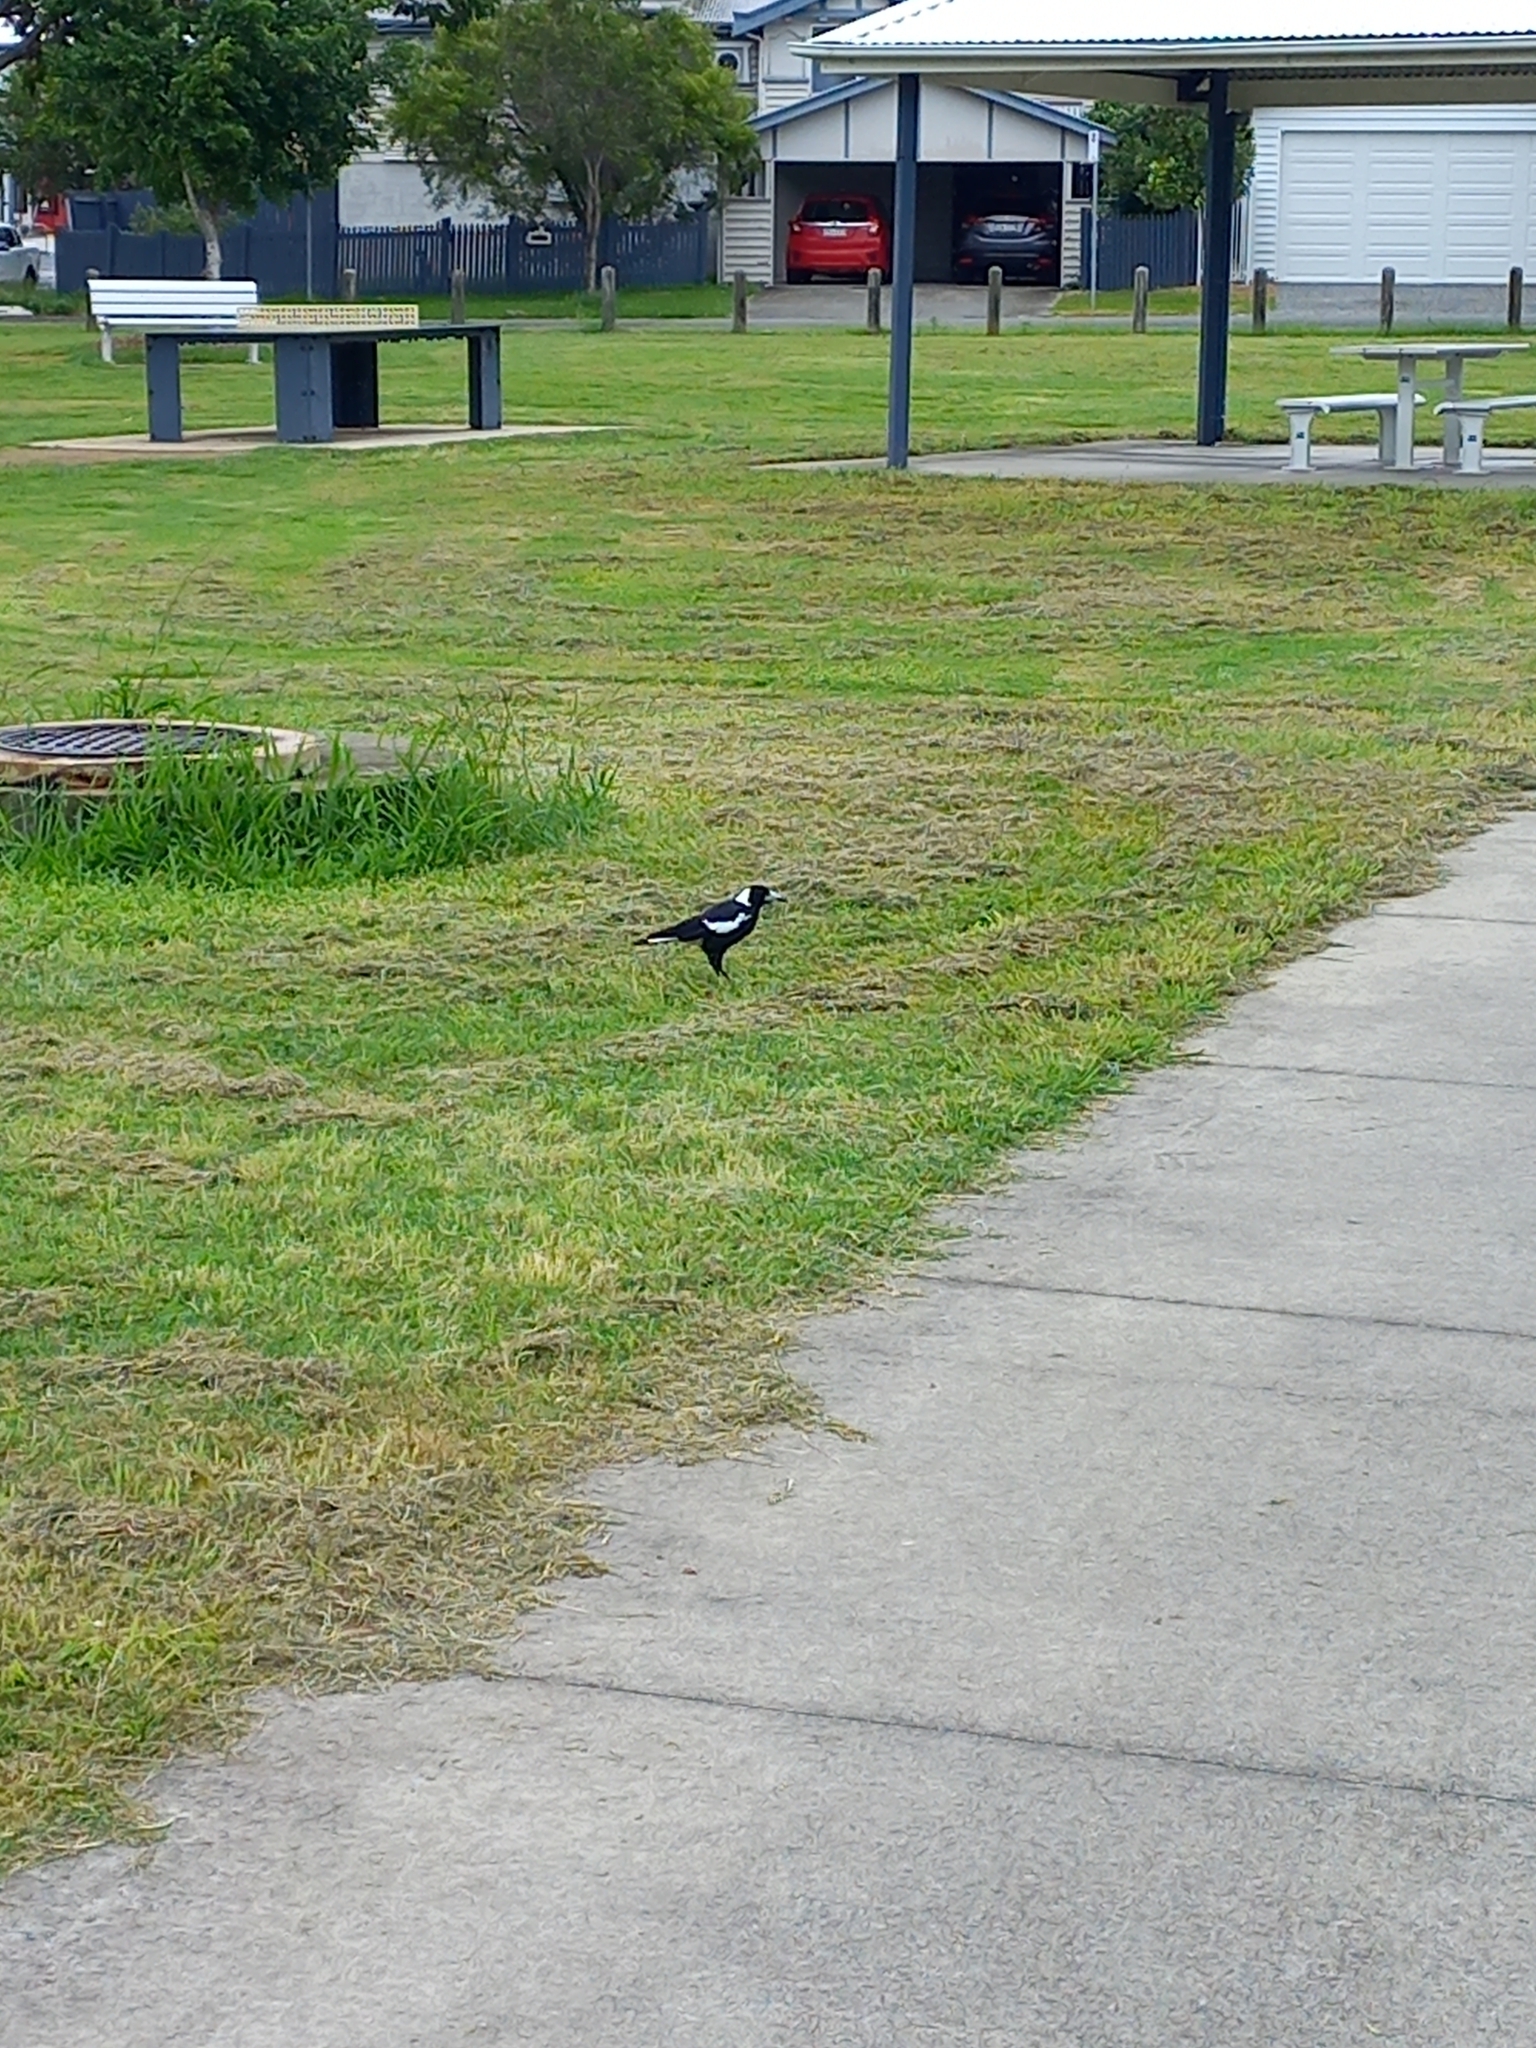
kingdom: Animalia
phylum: Chordata
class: Aves
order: Passeriformes
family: Cracticidae
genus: Gymnorhina
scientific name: Gymnorhina tibicen
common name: Australian magpie
